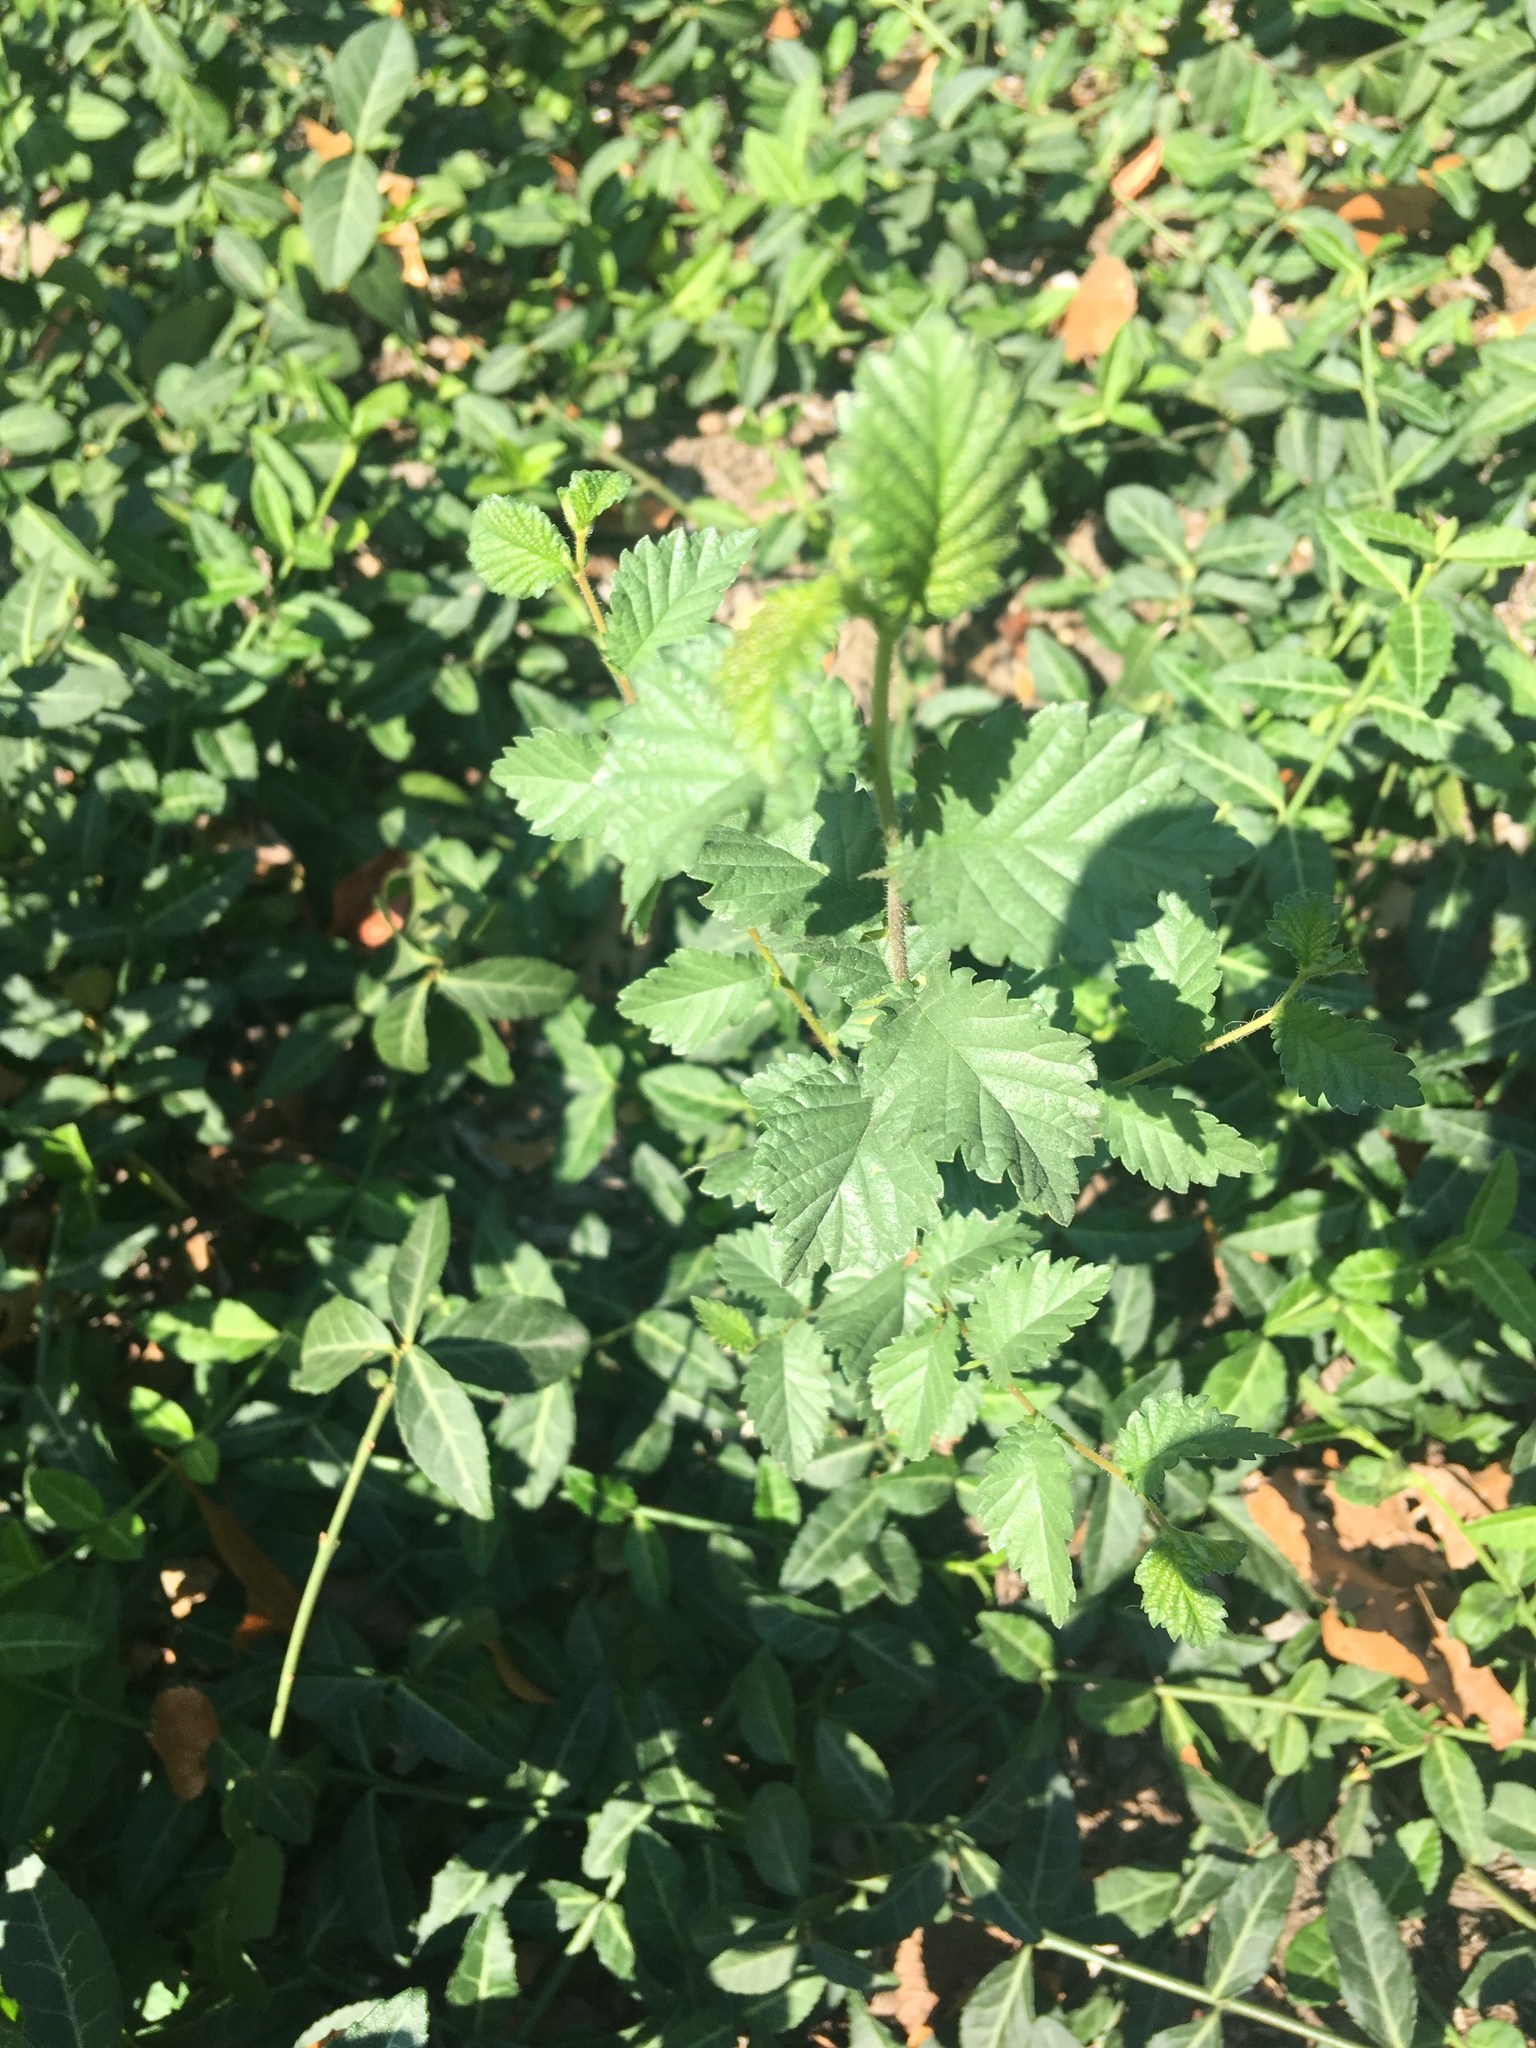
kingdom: Plantae
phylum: Tracheophyta
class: Magnoliopsida
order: Rosales
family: Ulmaceae
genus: Ulmus
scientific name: Ulmus pumila
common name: Siberian elm
